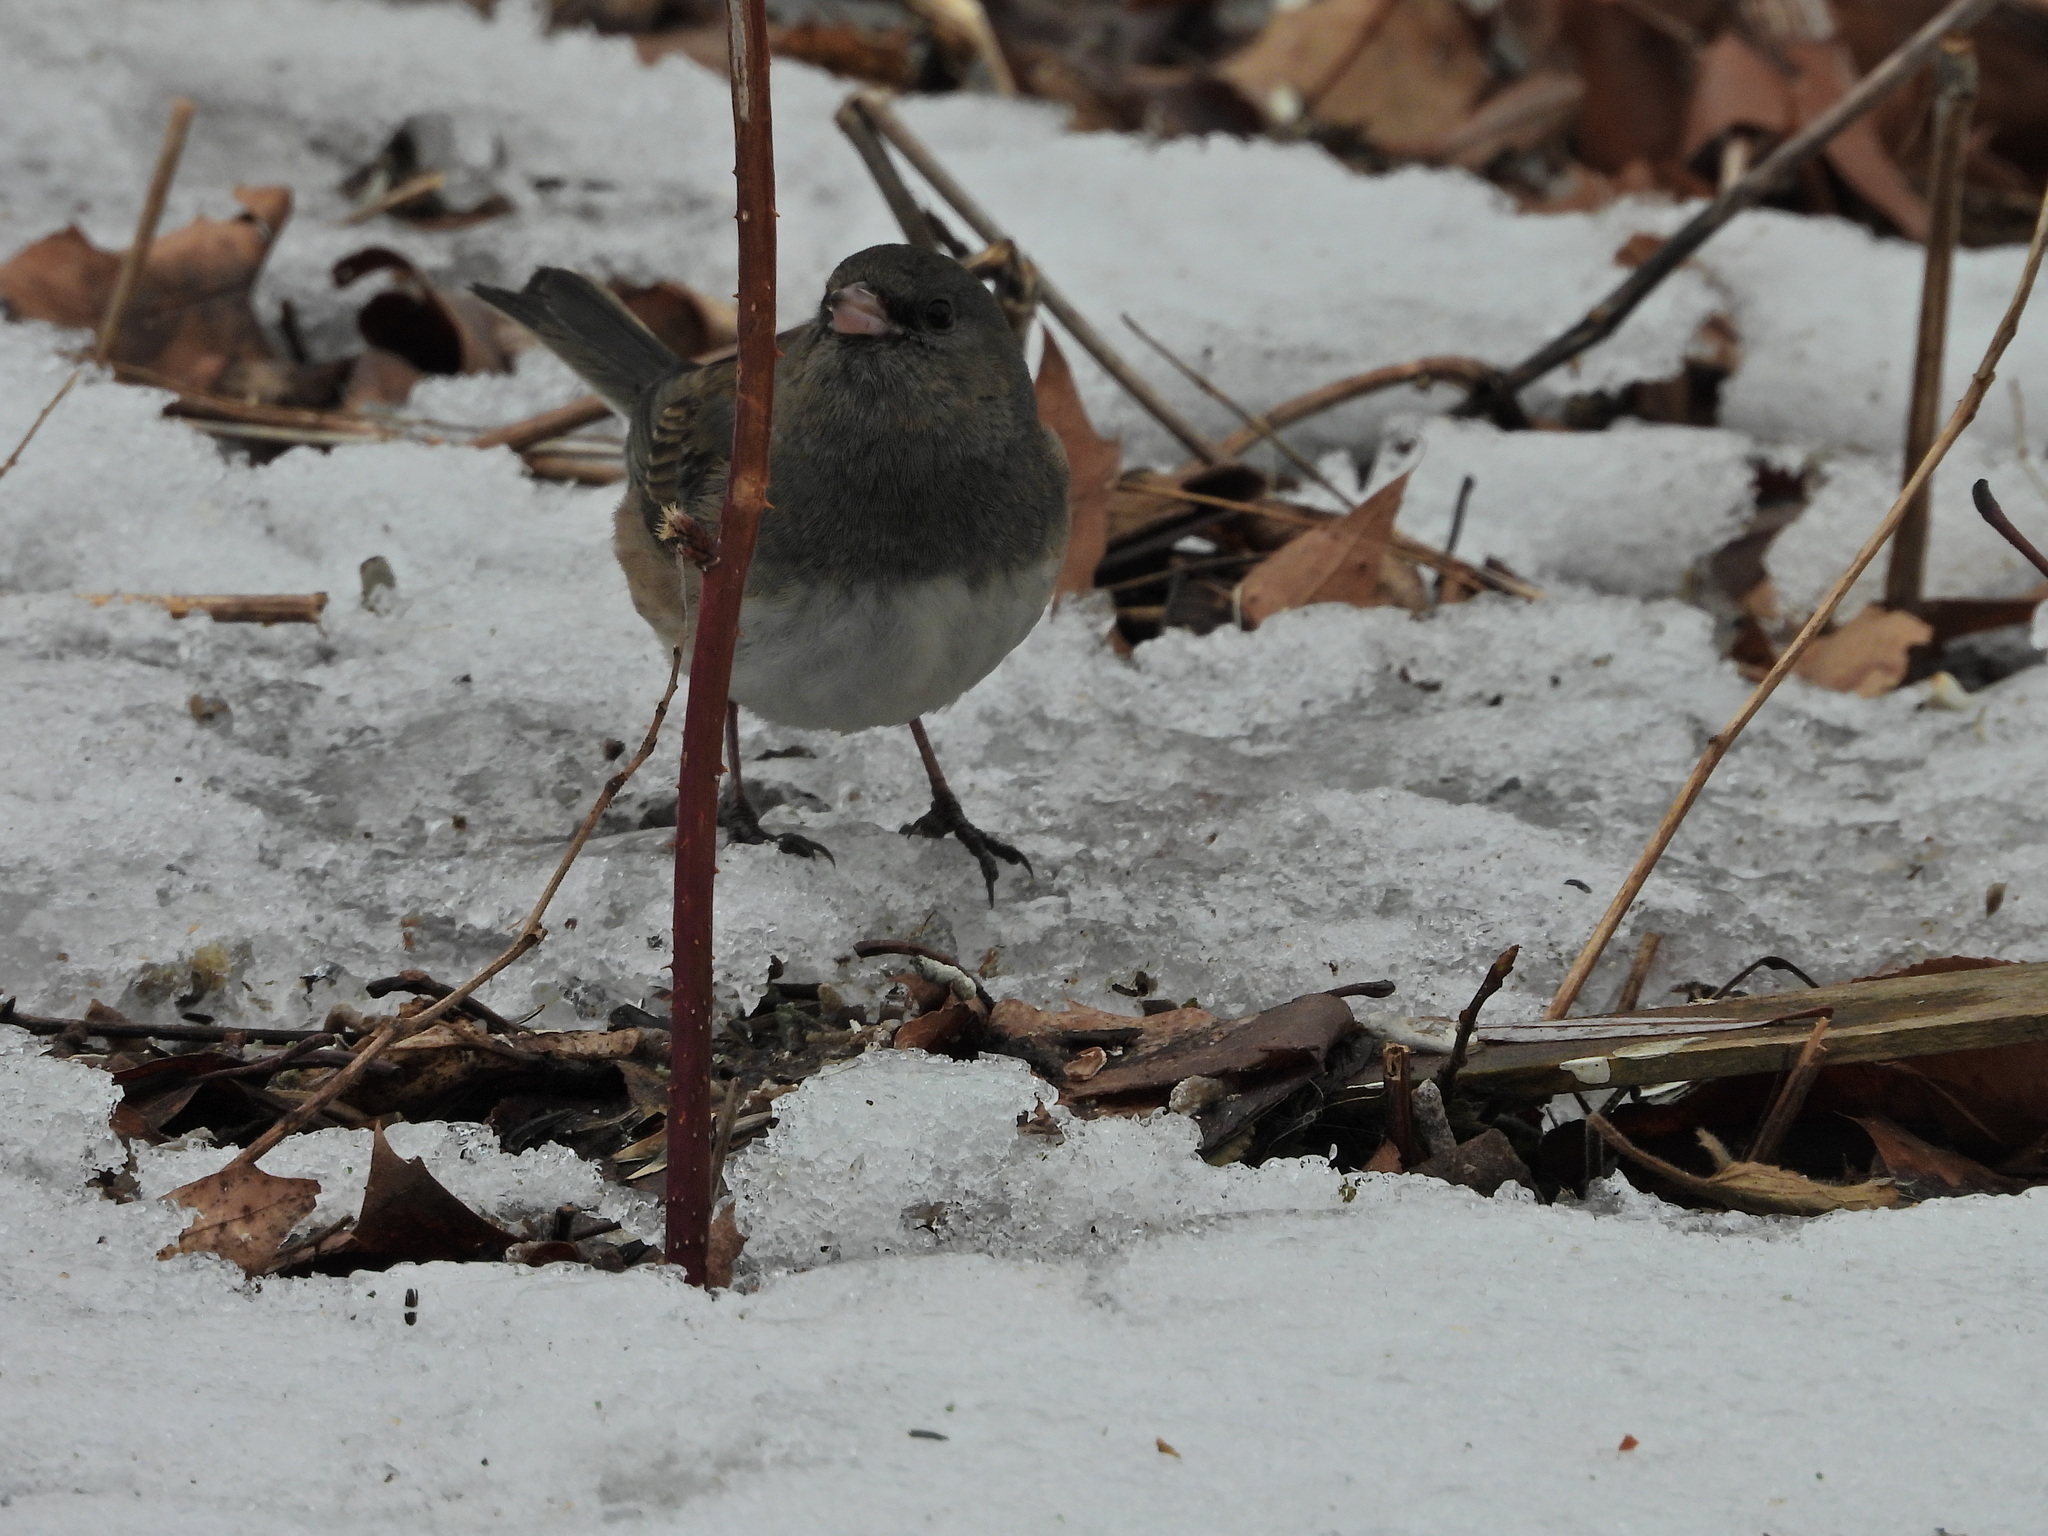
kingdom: Animalia
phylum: Chordata
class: Aves
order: Passeriformes
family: Passerellidae
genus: Junco
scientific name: Junco hyemalis
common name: Dark-eyed junco
